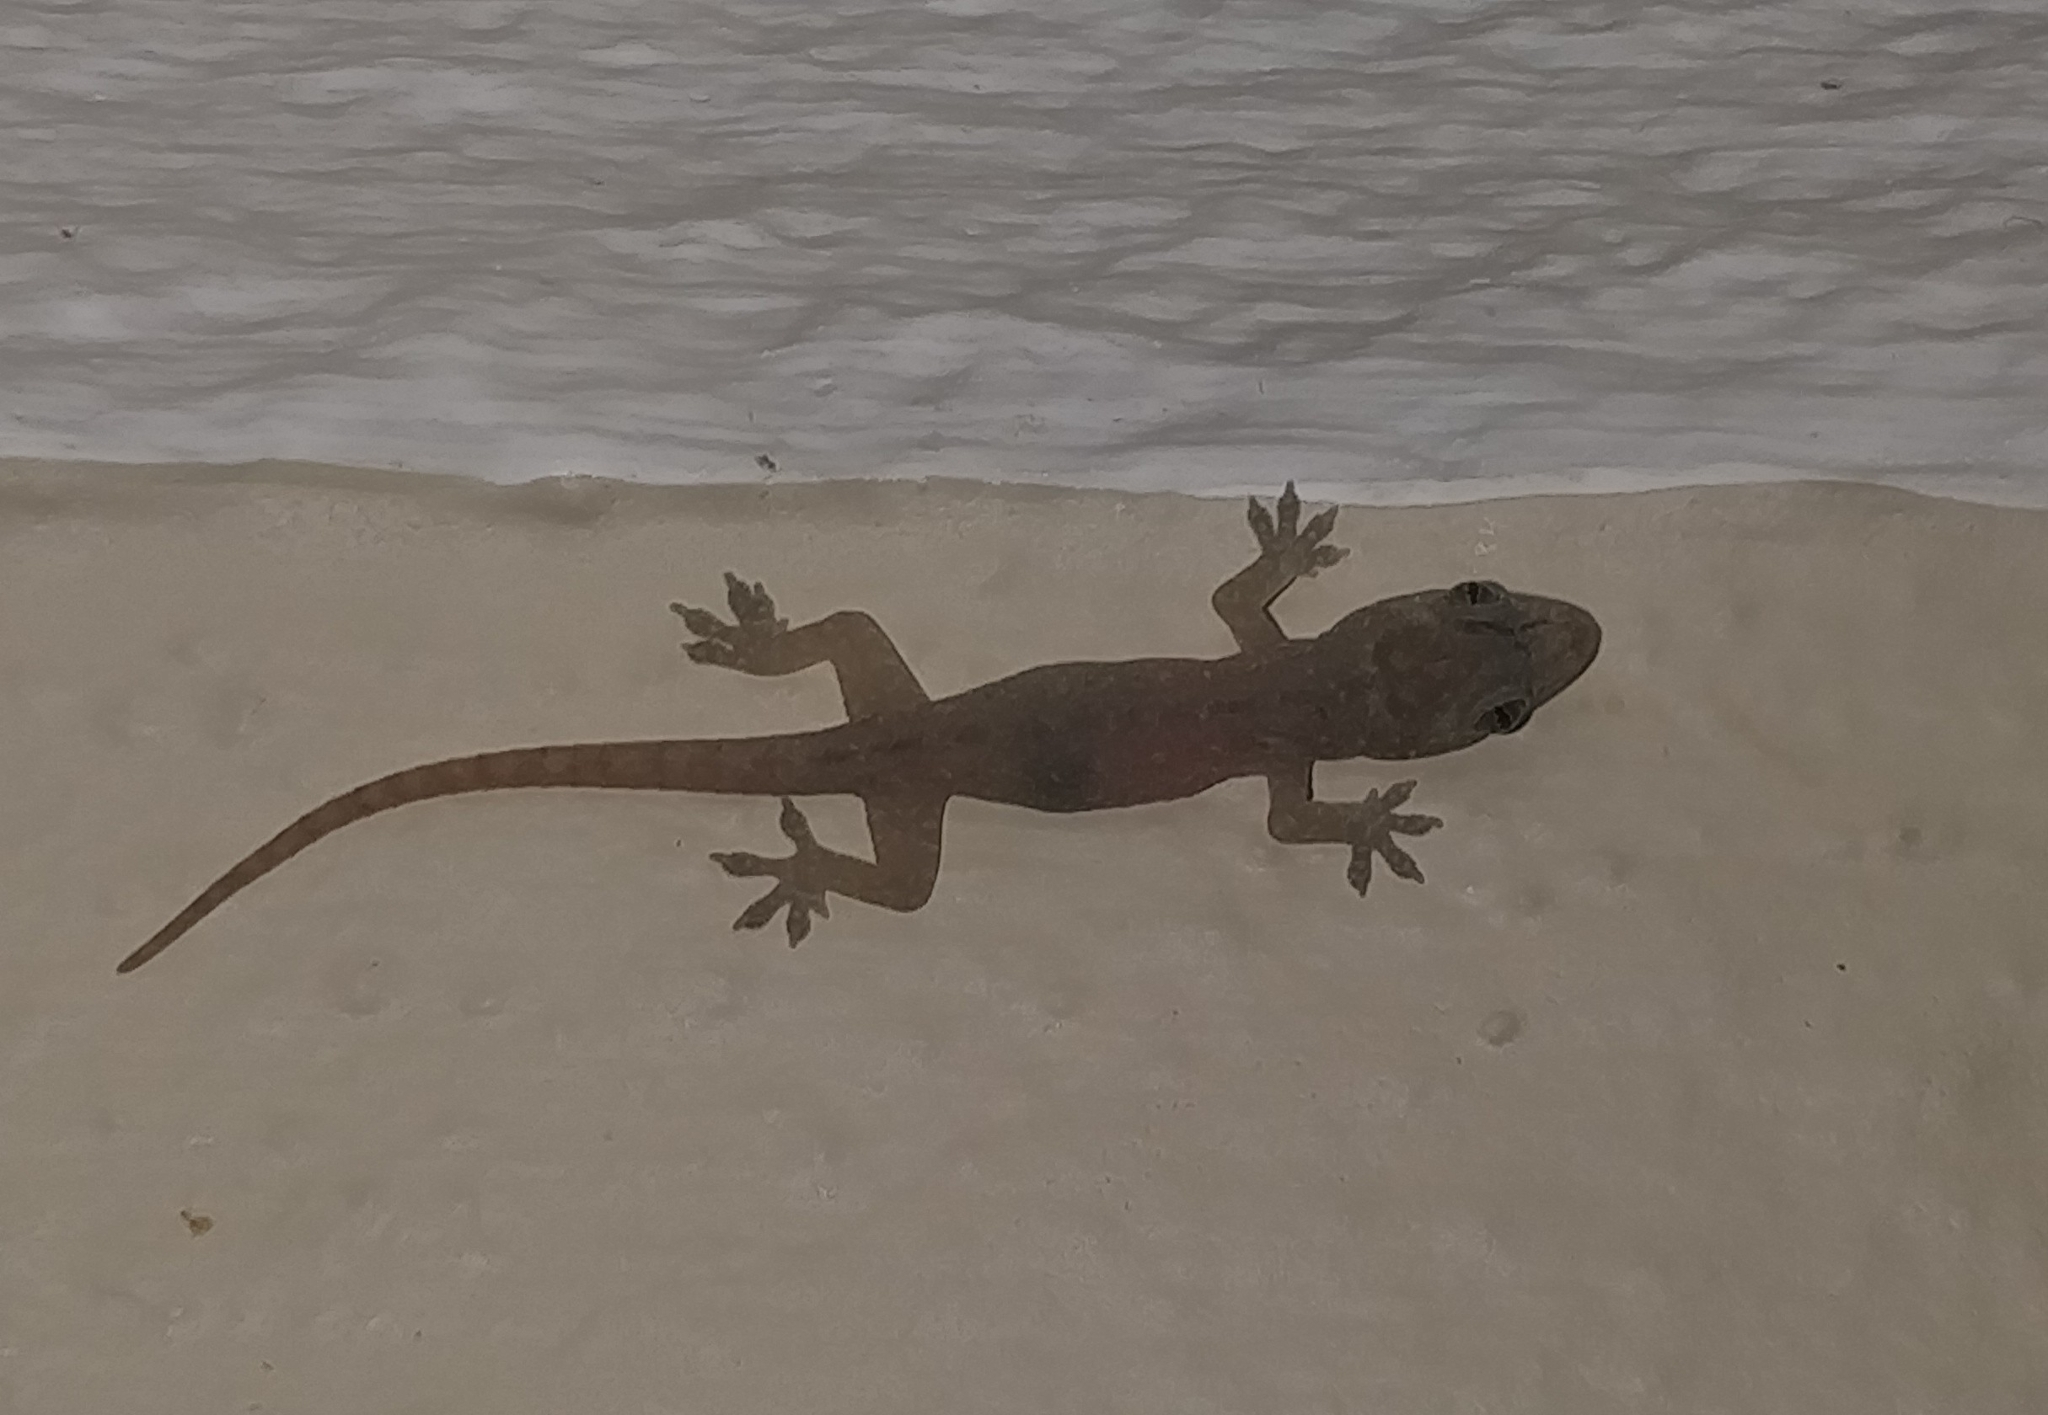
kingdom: Animalia
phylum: Chordata
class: Squamata
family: Gekkonidae
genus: Hemidactylus
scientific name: Hemidactylus frenatus
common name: Common house gecko
